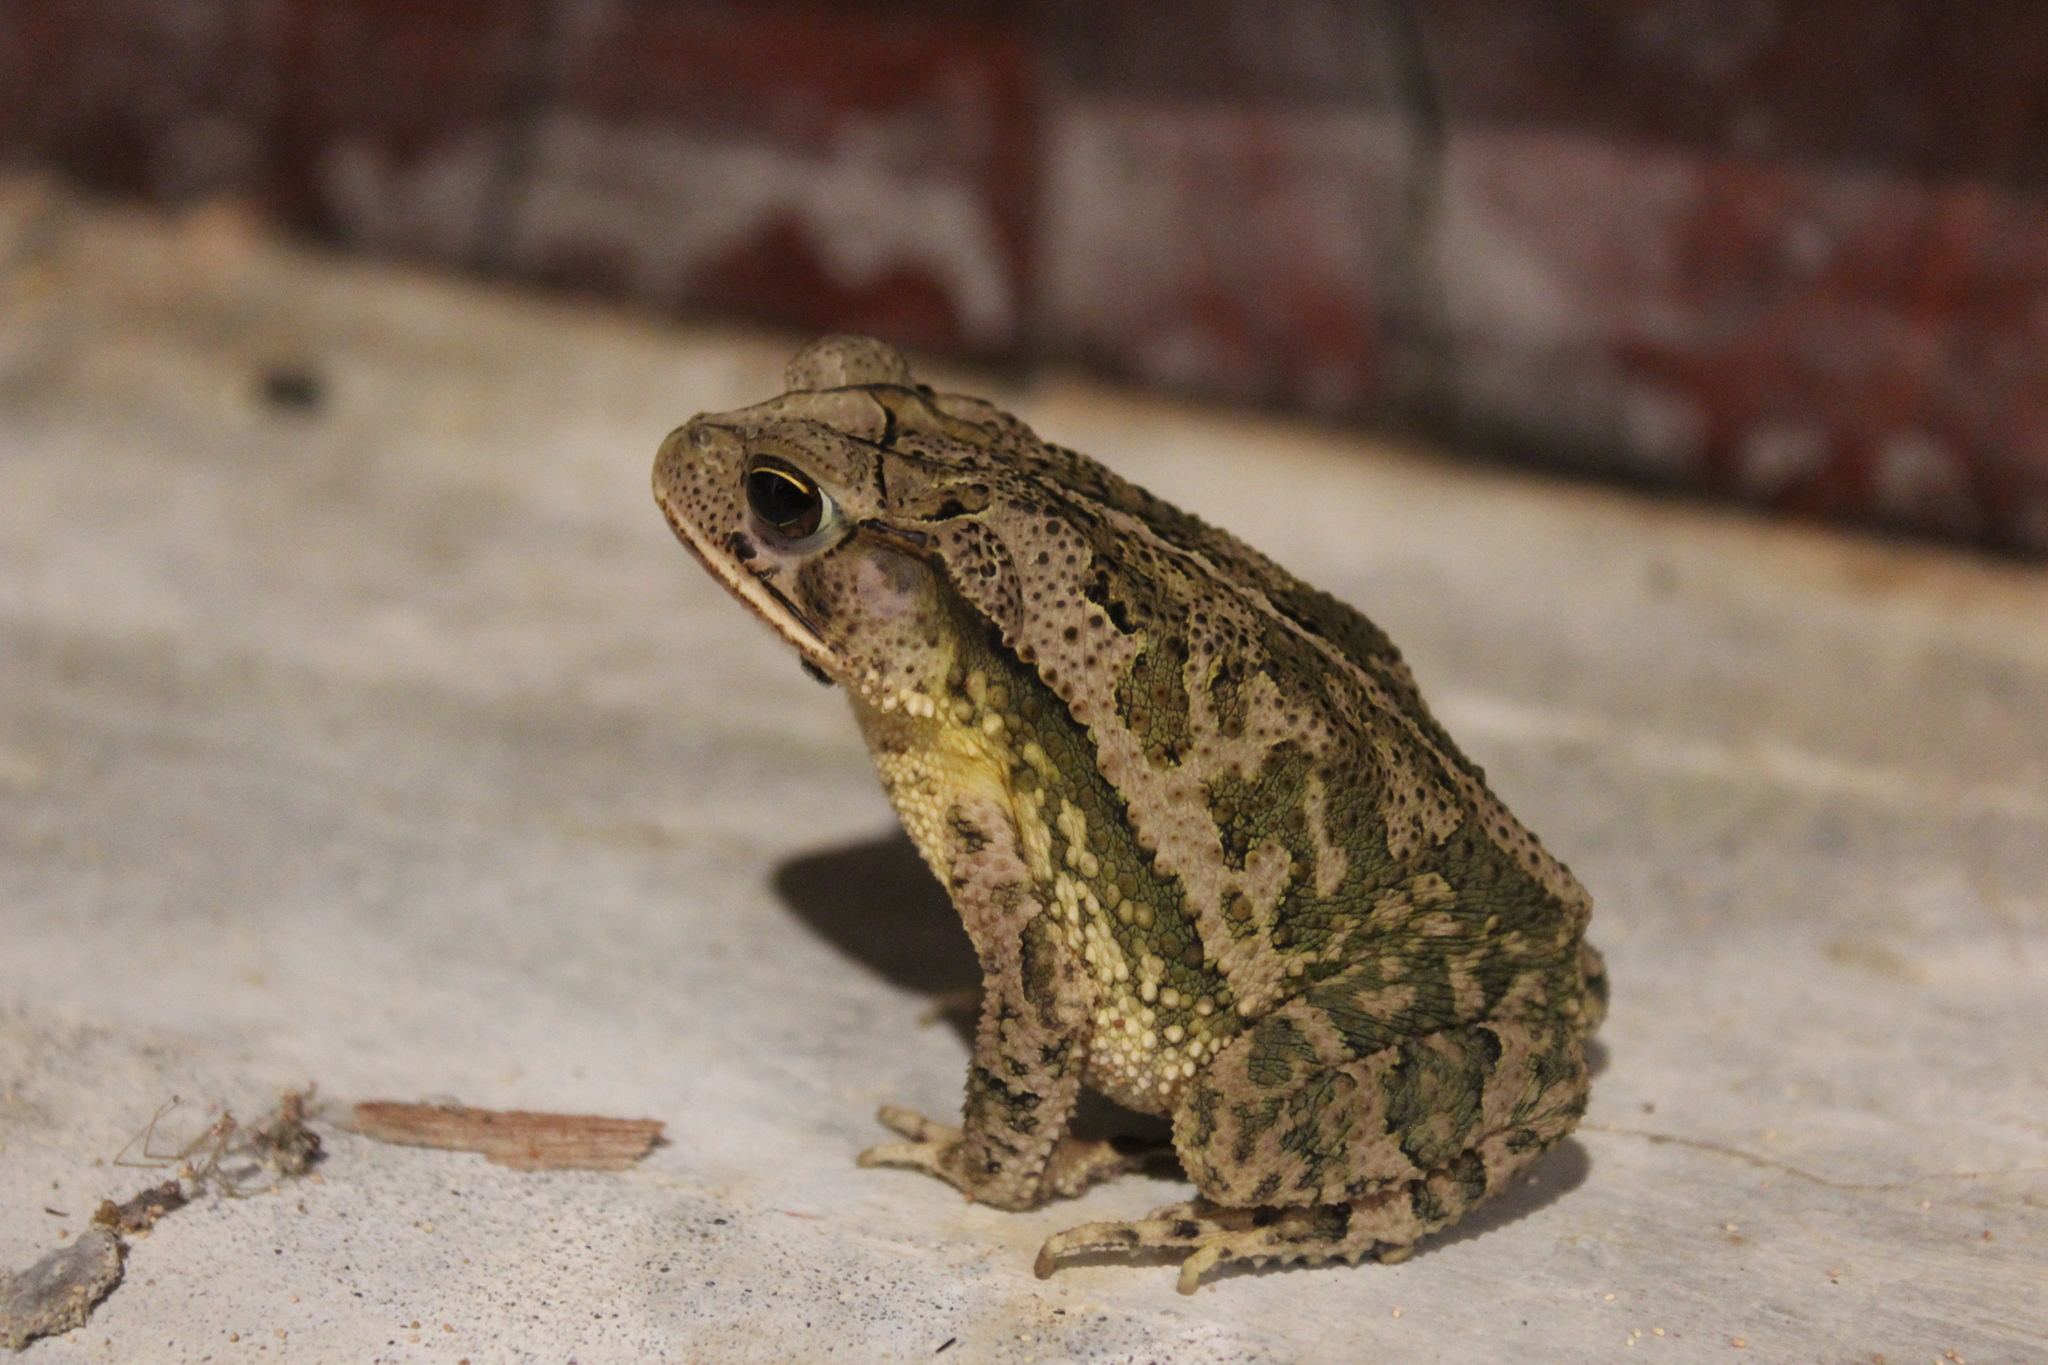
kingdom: Animalia
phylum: Chordata
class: Amphibia
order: Anura
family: Bufonidae
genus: Incilius
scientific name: Incilius valliceps
